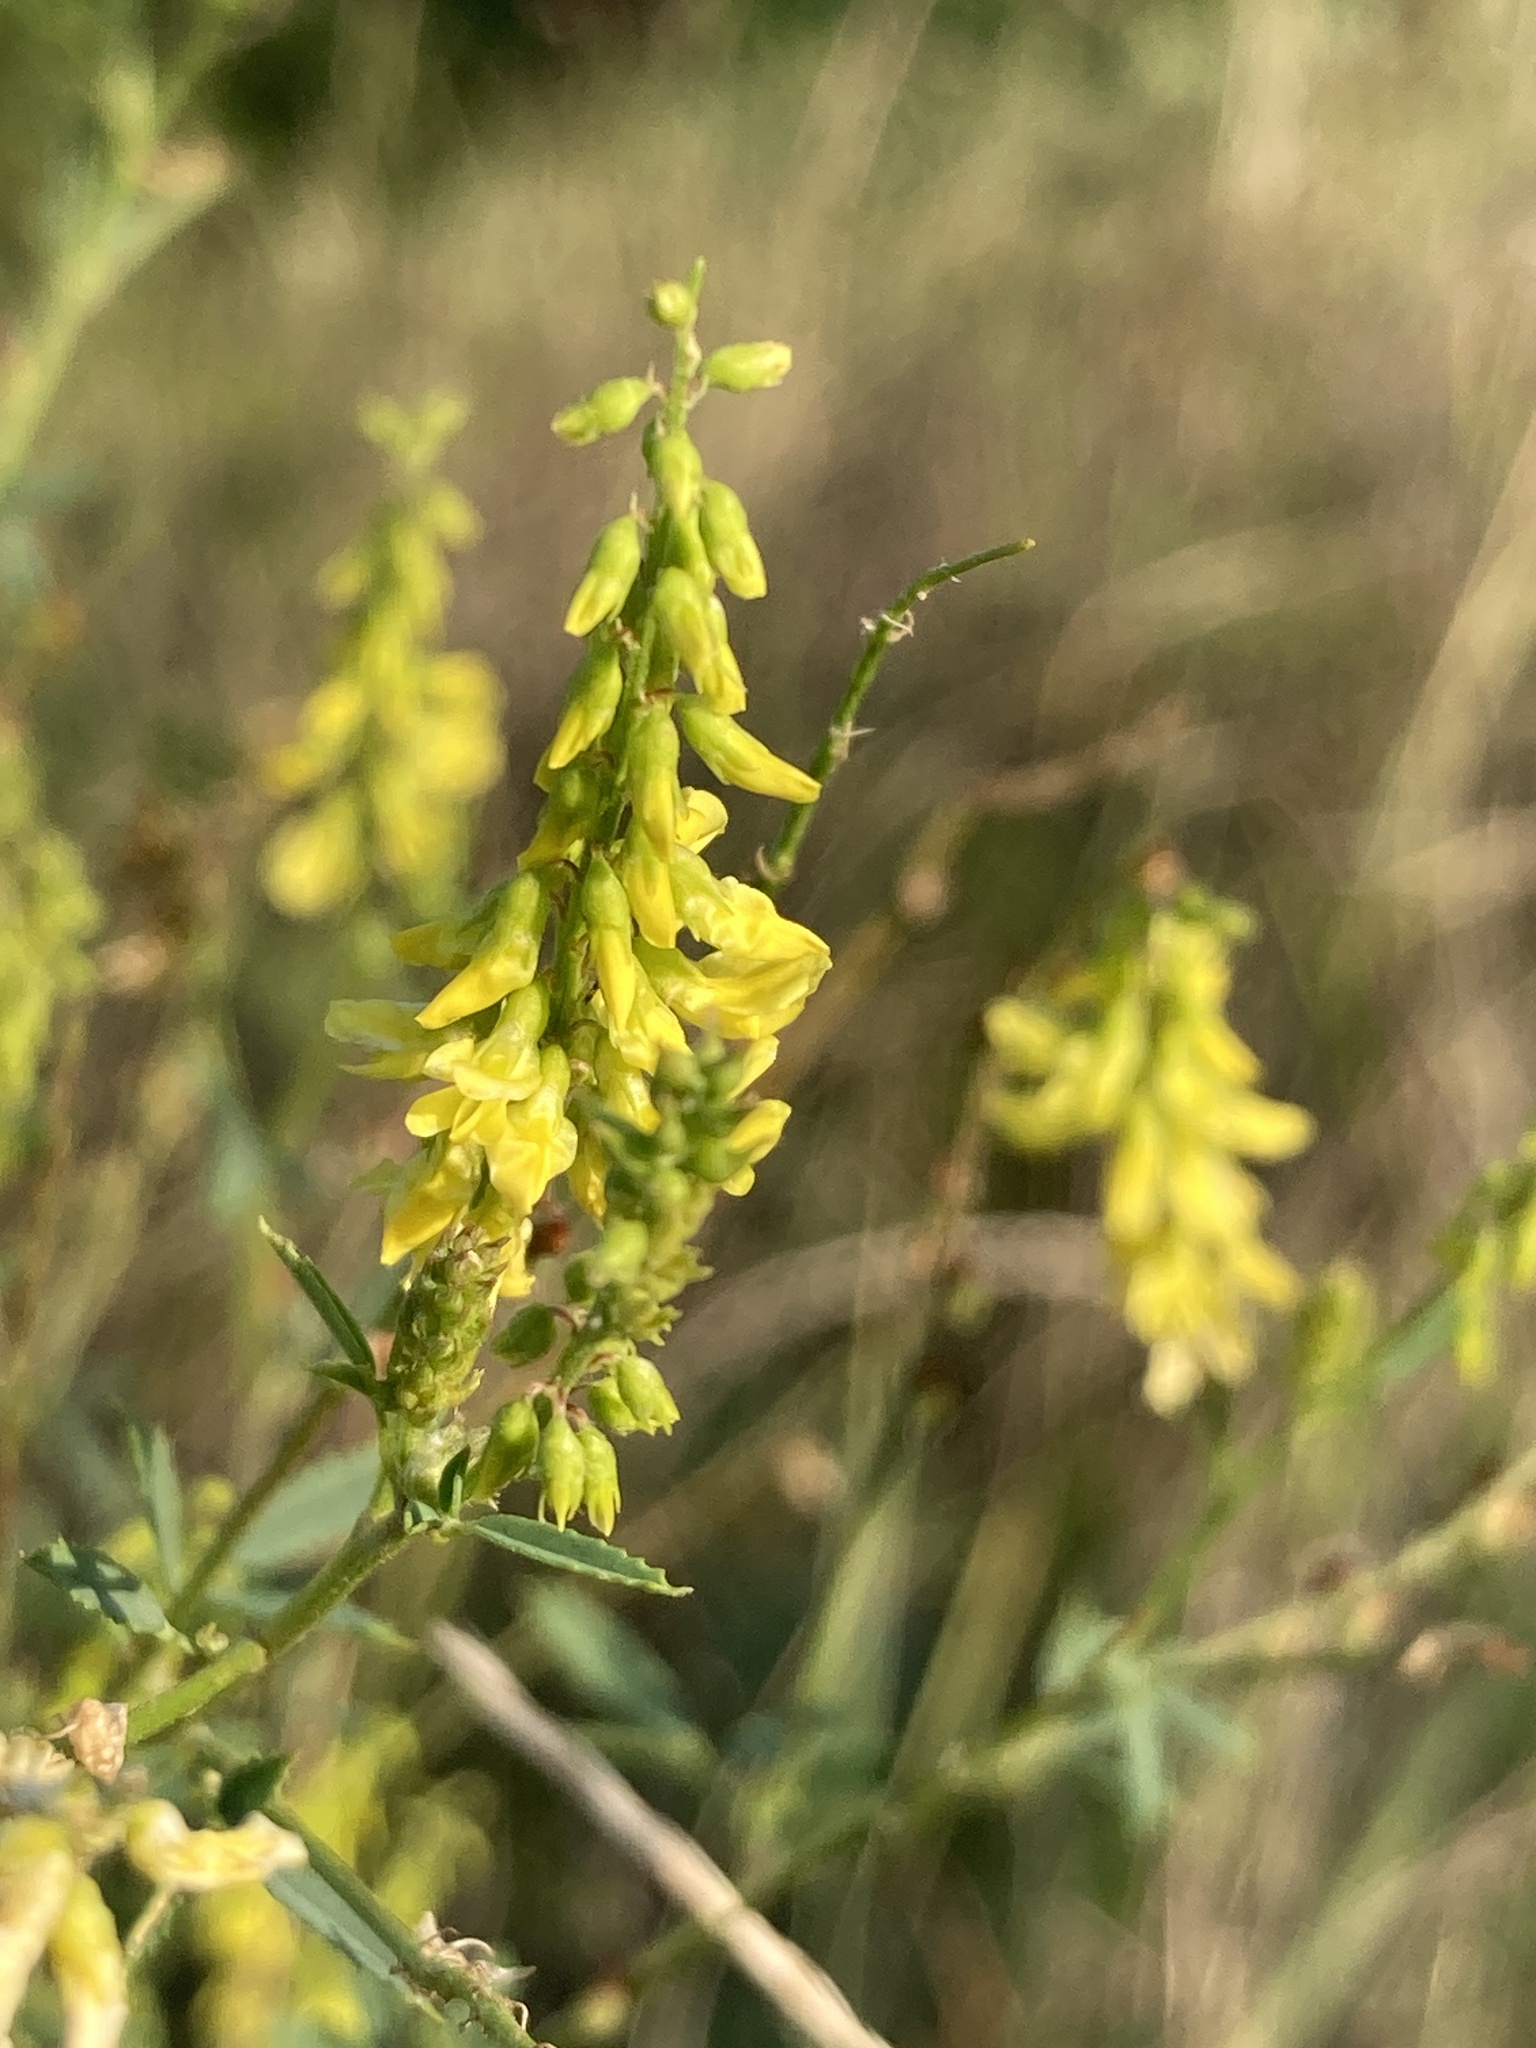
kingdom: Plantae
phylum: Tracheophyta
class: Magnoliopsida
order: Fabales
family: Fabaceae
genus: Melilotus
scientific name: Melilotus officinalis
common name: Sweetclover
